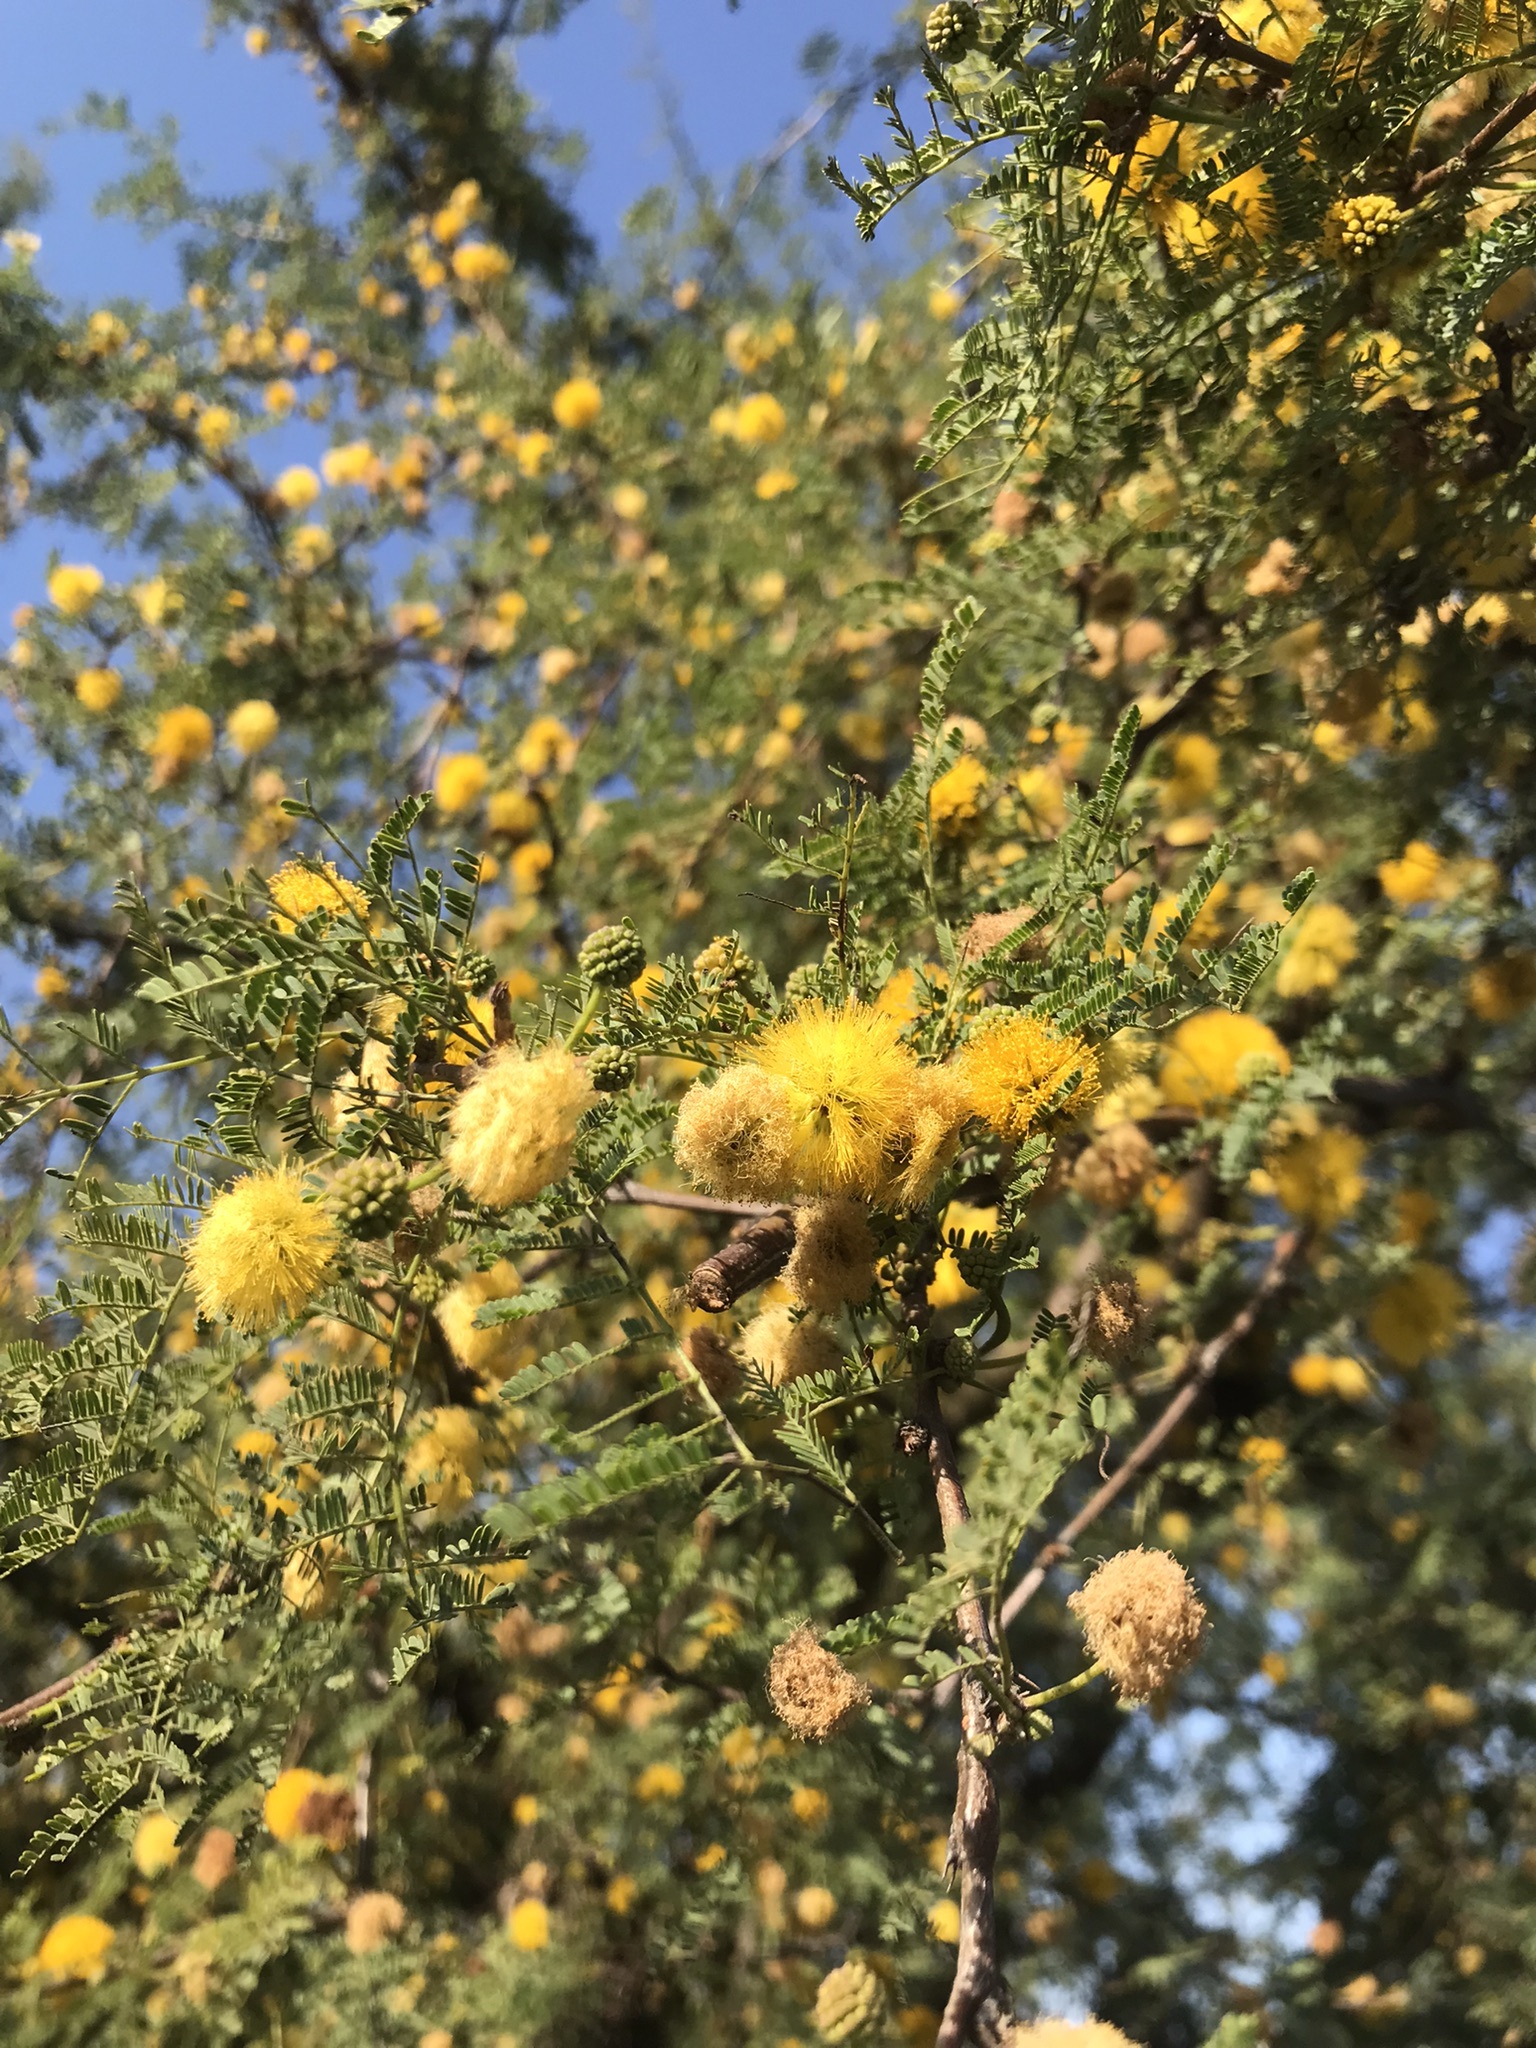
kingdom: Plantae
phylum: Tracheophyta
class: Magnoliopsida
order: Fabales
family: Fabaceae
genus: Vachellia
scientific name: Vachellia caven
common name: Roman cassie
